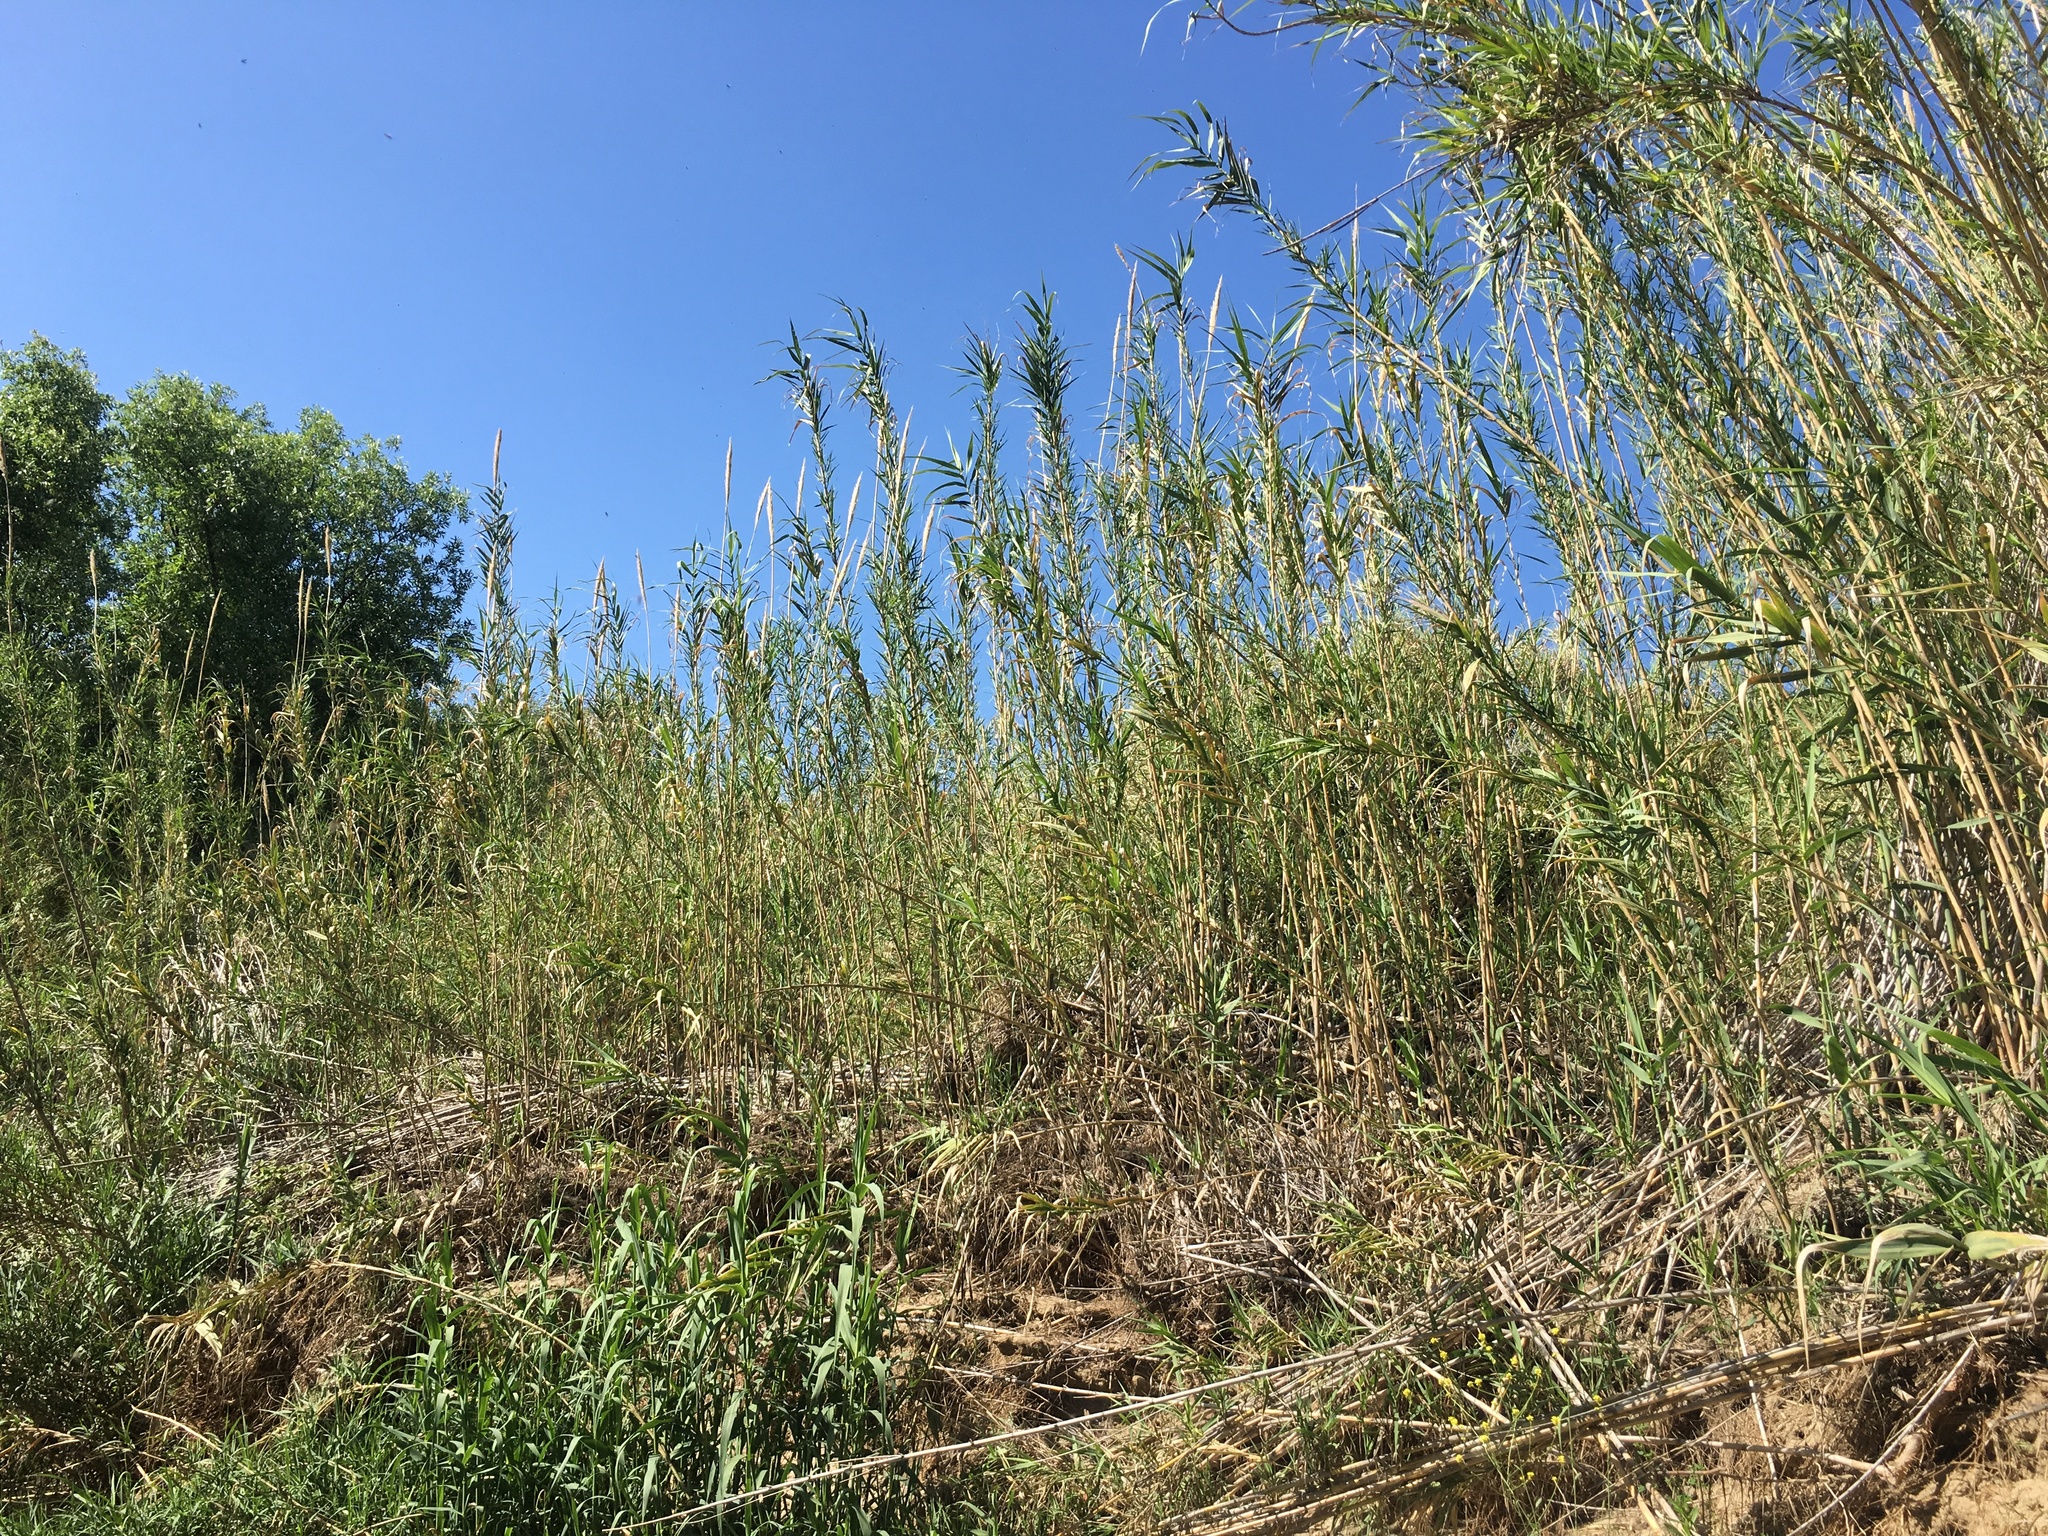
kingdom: Plantae
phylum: Tracheophyta
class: Liliopsida
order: Poales
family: Poaceae
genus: Arundo
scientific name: Arundo donax
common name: Giant reed
